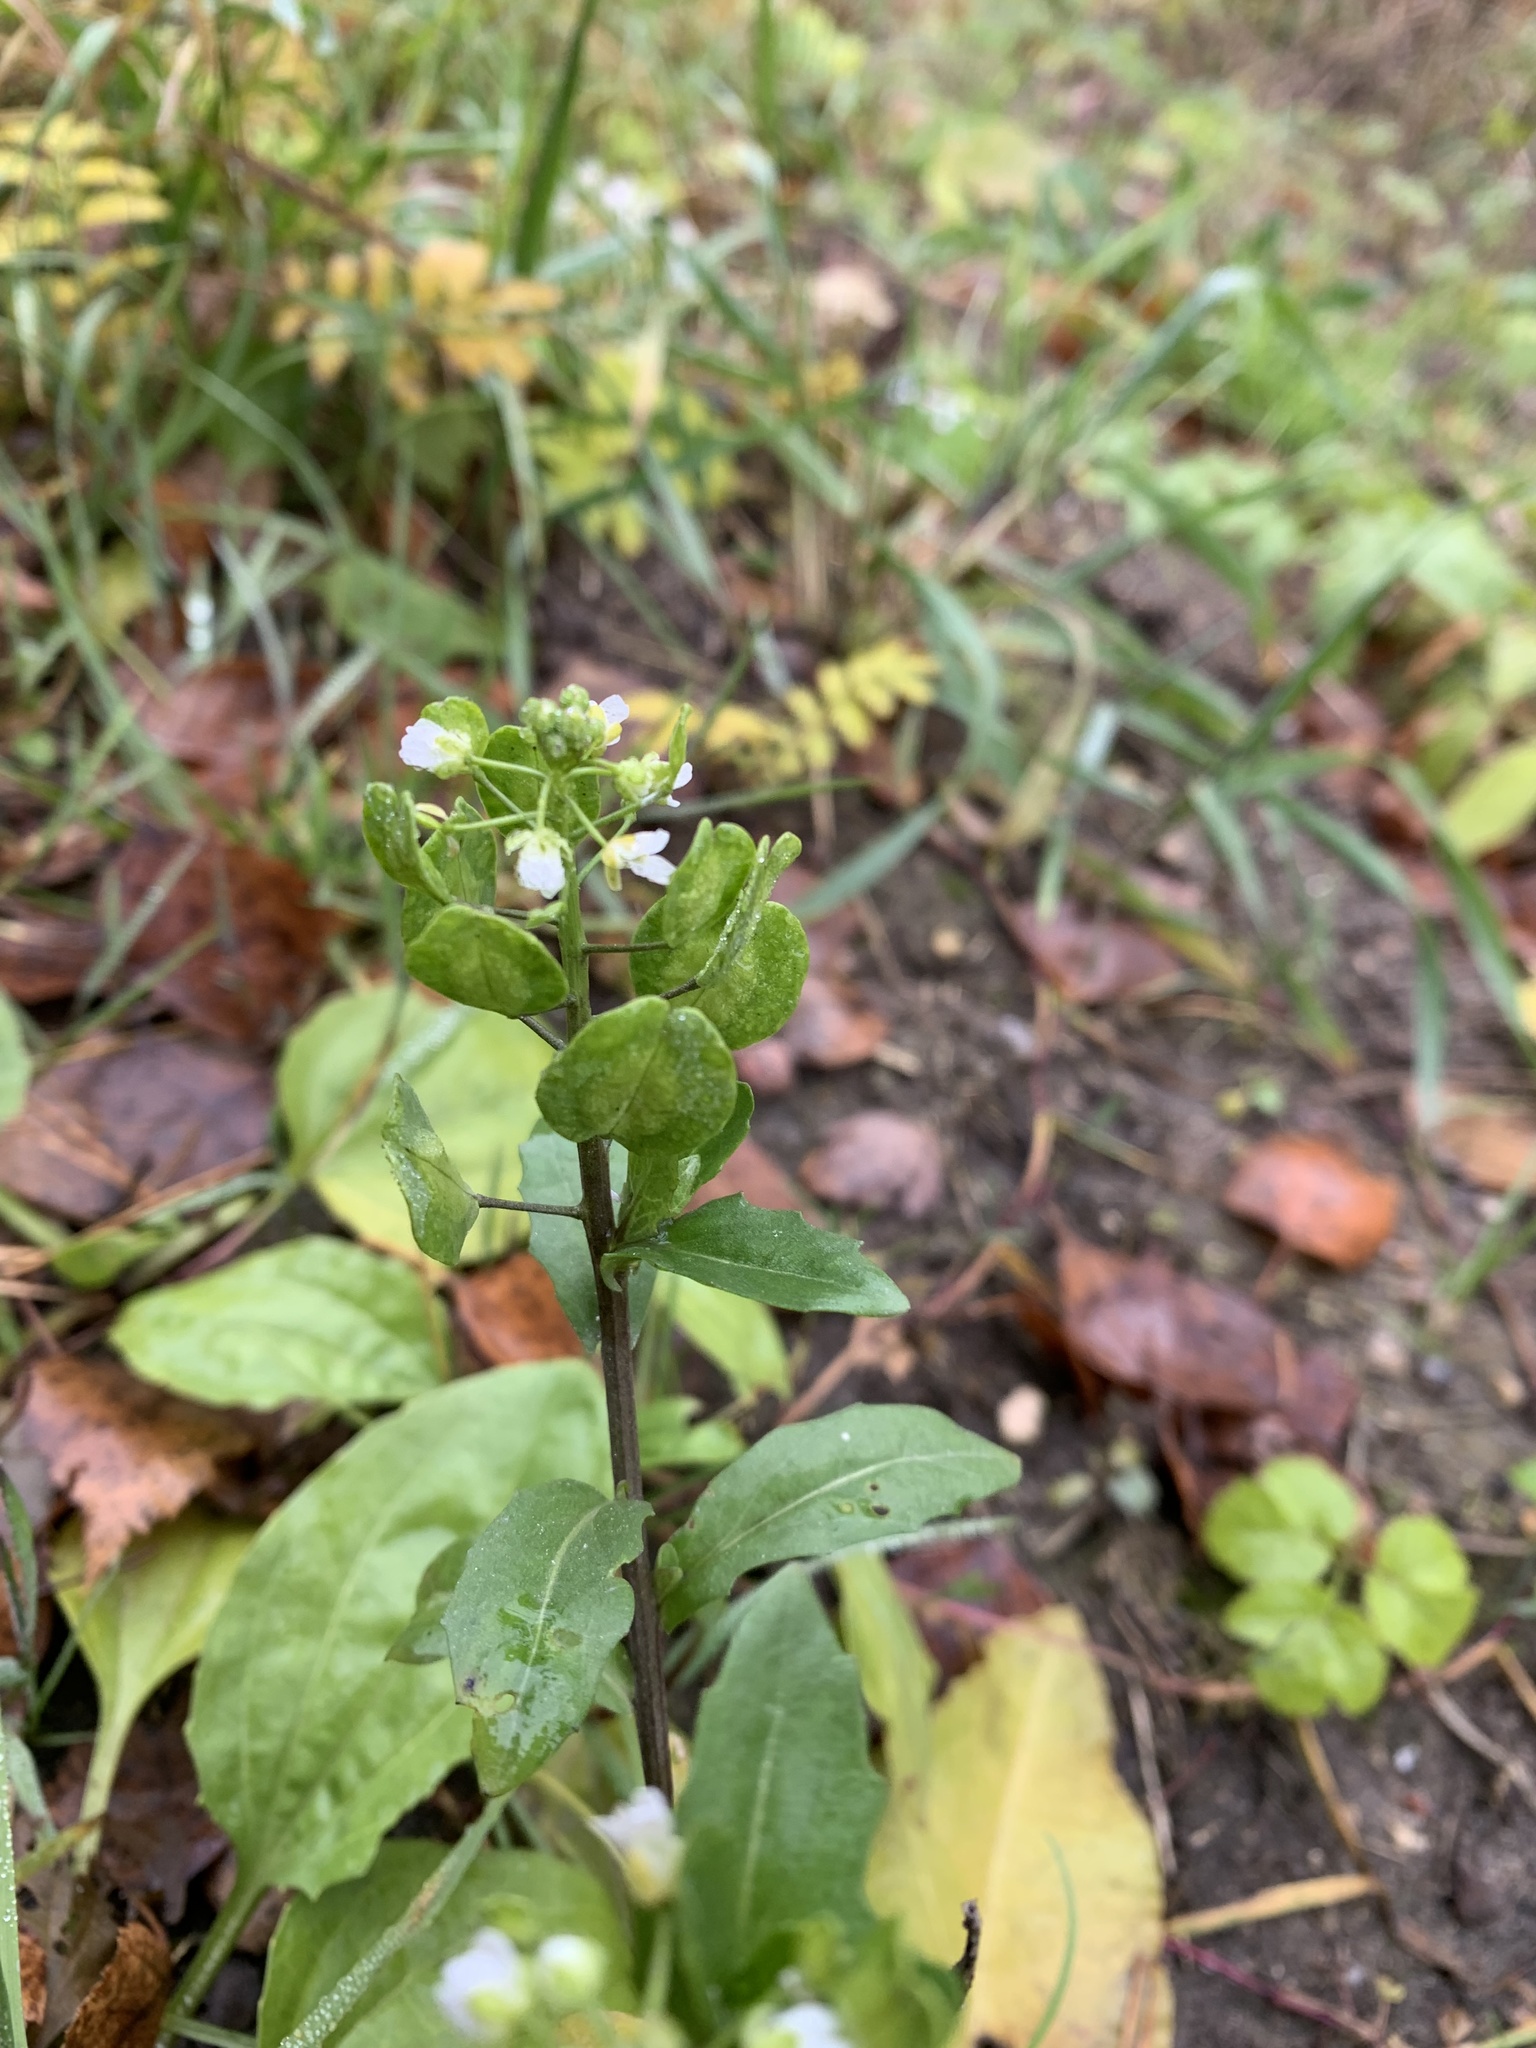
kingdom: Plantae
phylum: Tracheophyta
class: Magnoliopsida
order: Brassicales
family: Brassicaceae
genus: Thlaspi
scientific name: Thlaspi arvense
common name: Field pennycress
